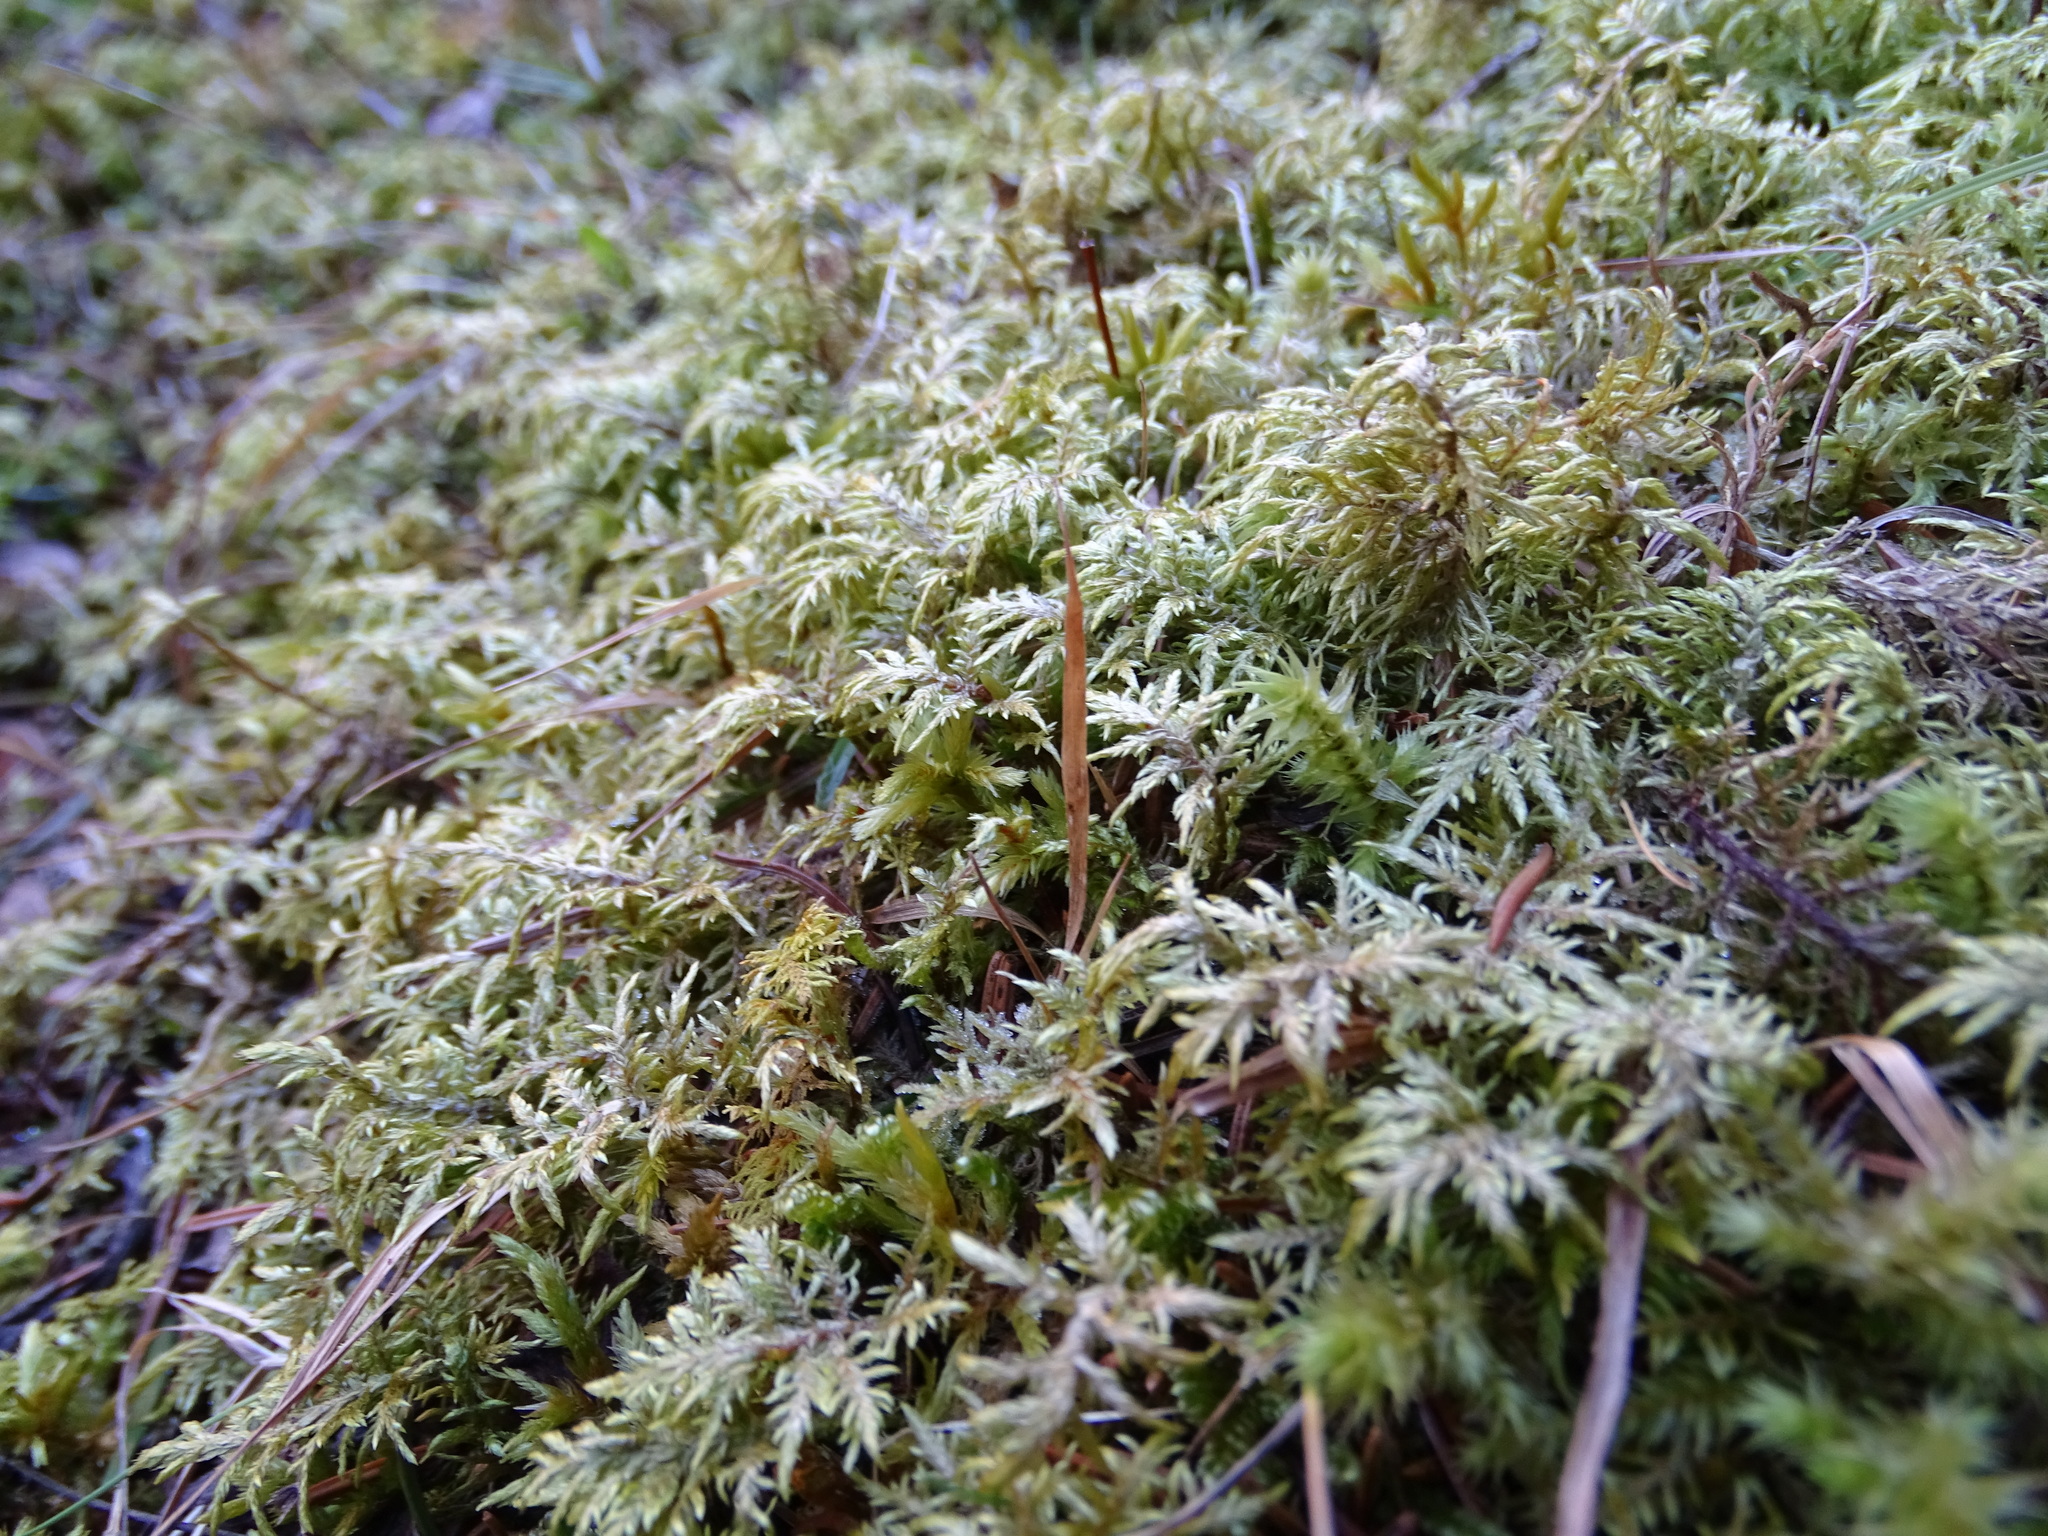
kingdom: Plantae
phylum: Bryophyta
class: Bryopsida
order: Hypnales
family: Hylocomiaceae
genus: Hylocomium
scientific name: Hylocomium splendens
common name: Stairstep moss
